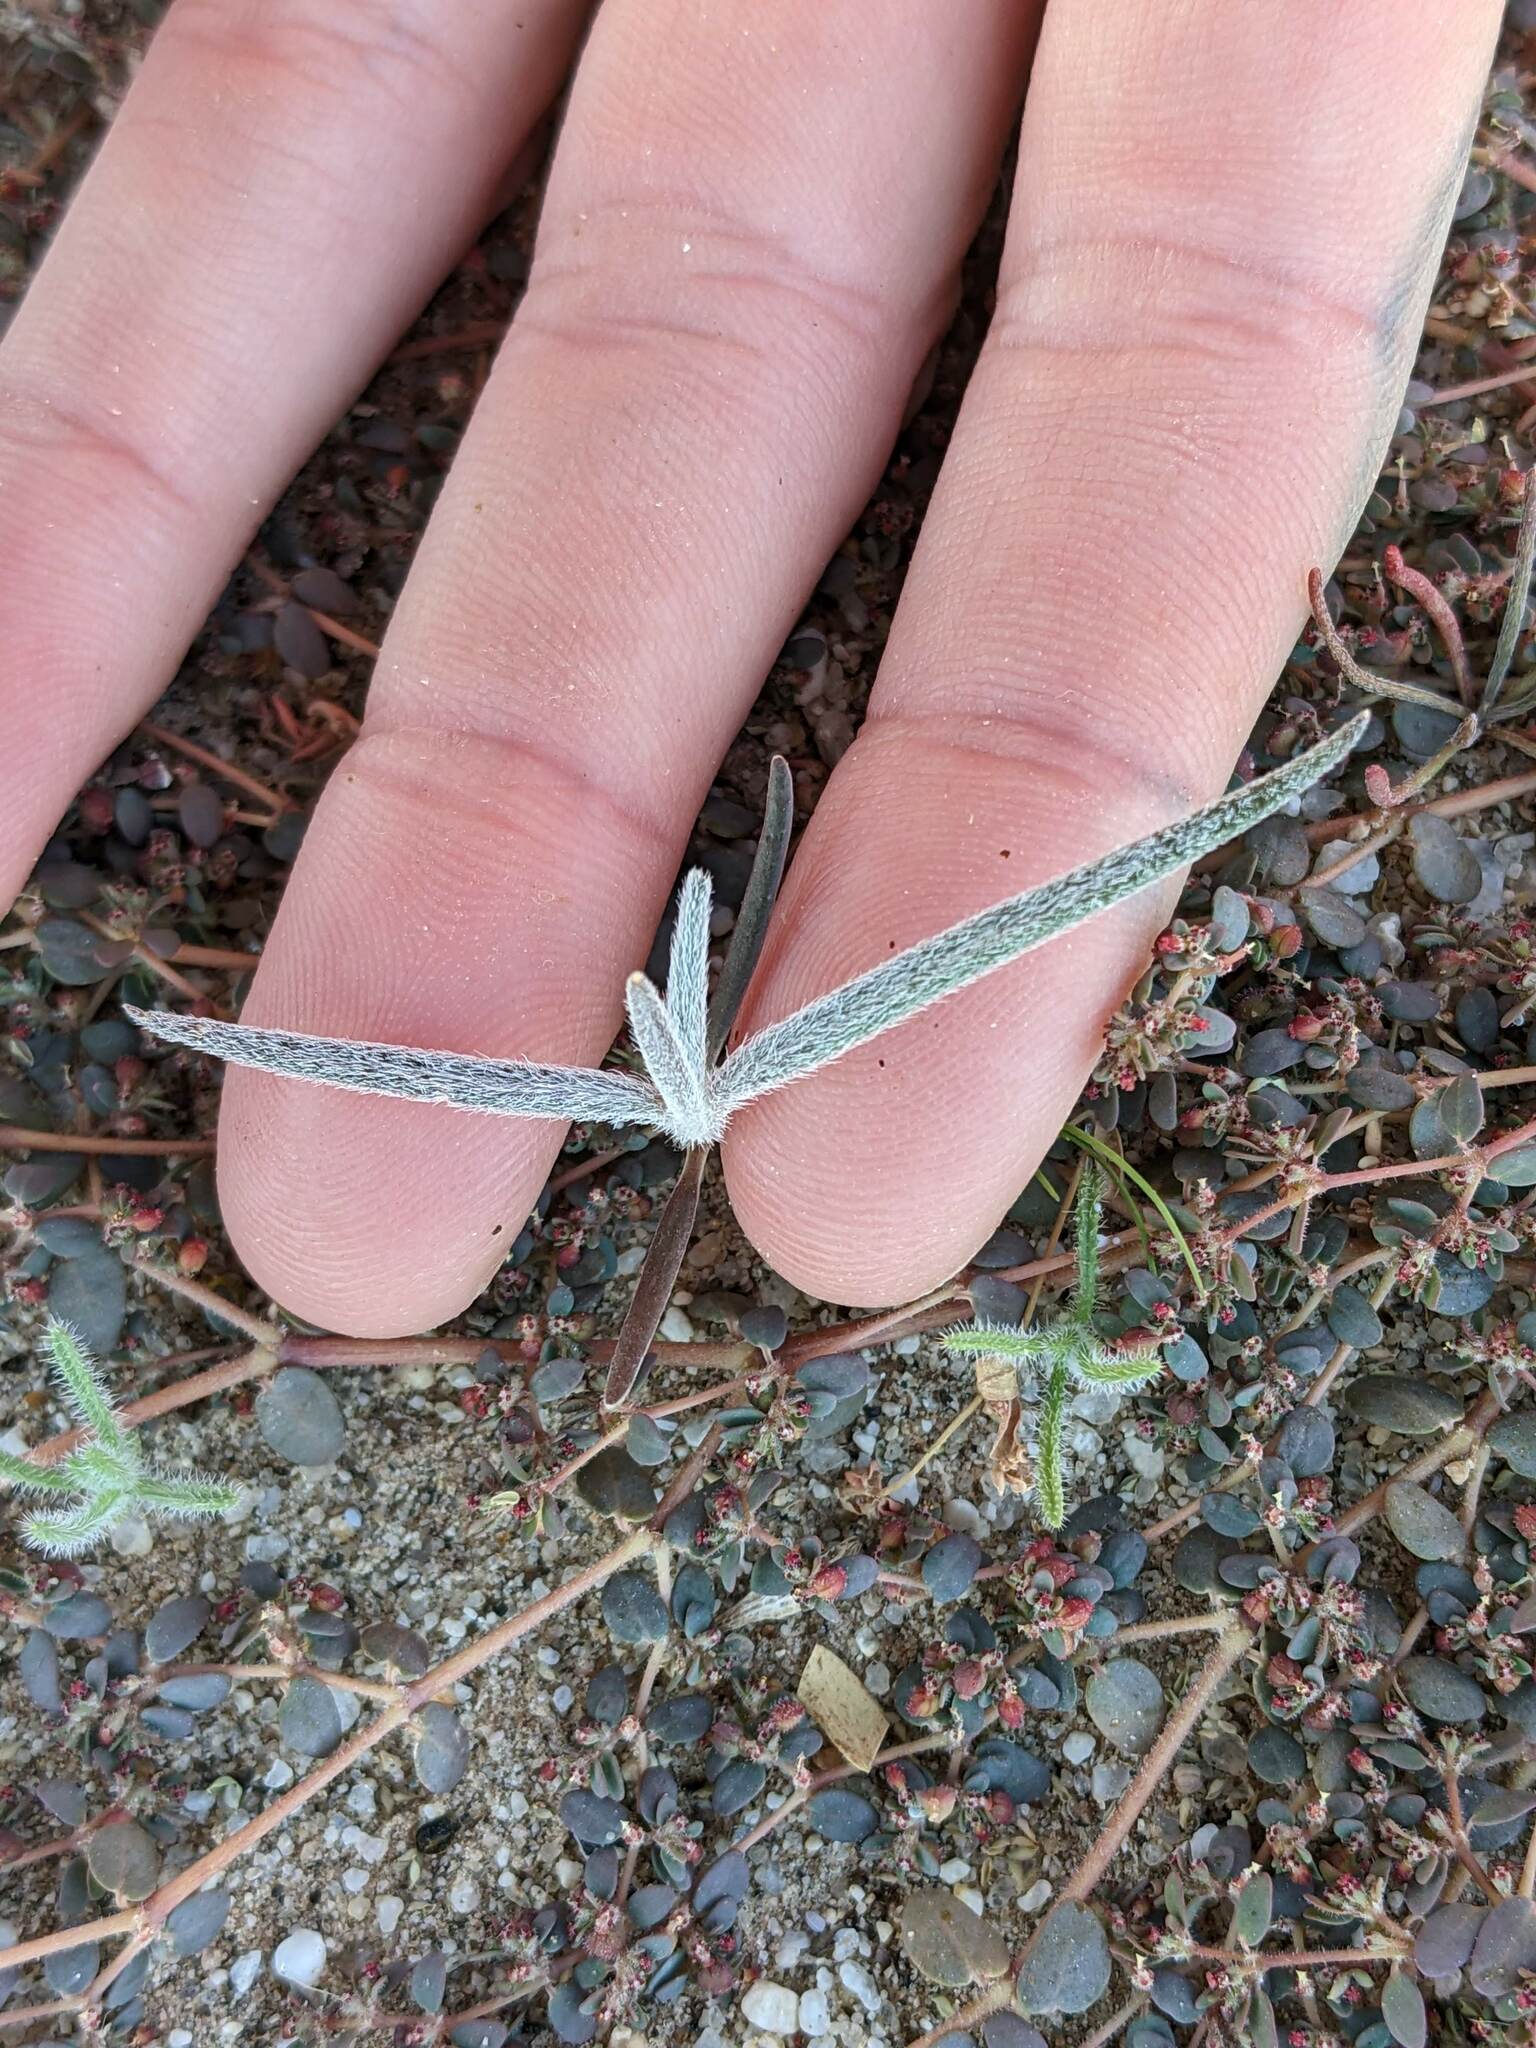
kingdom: Plantae
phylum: Tracheophyta
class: Magnoliopsida
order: Asterales
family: Asteraceae
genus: Palafoxia
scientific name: Palafoxia arida
